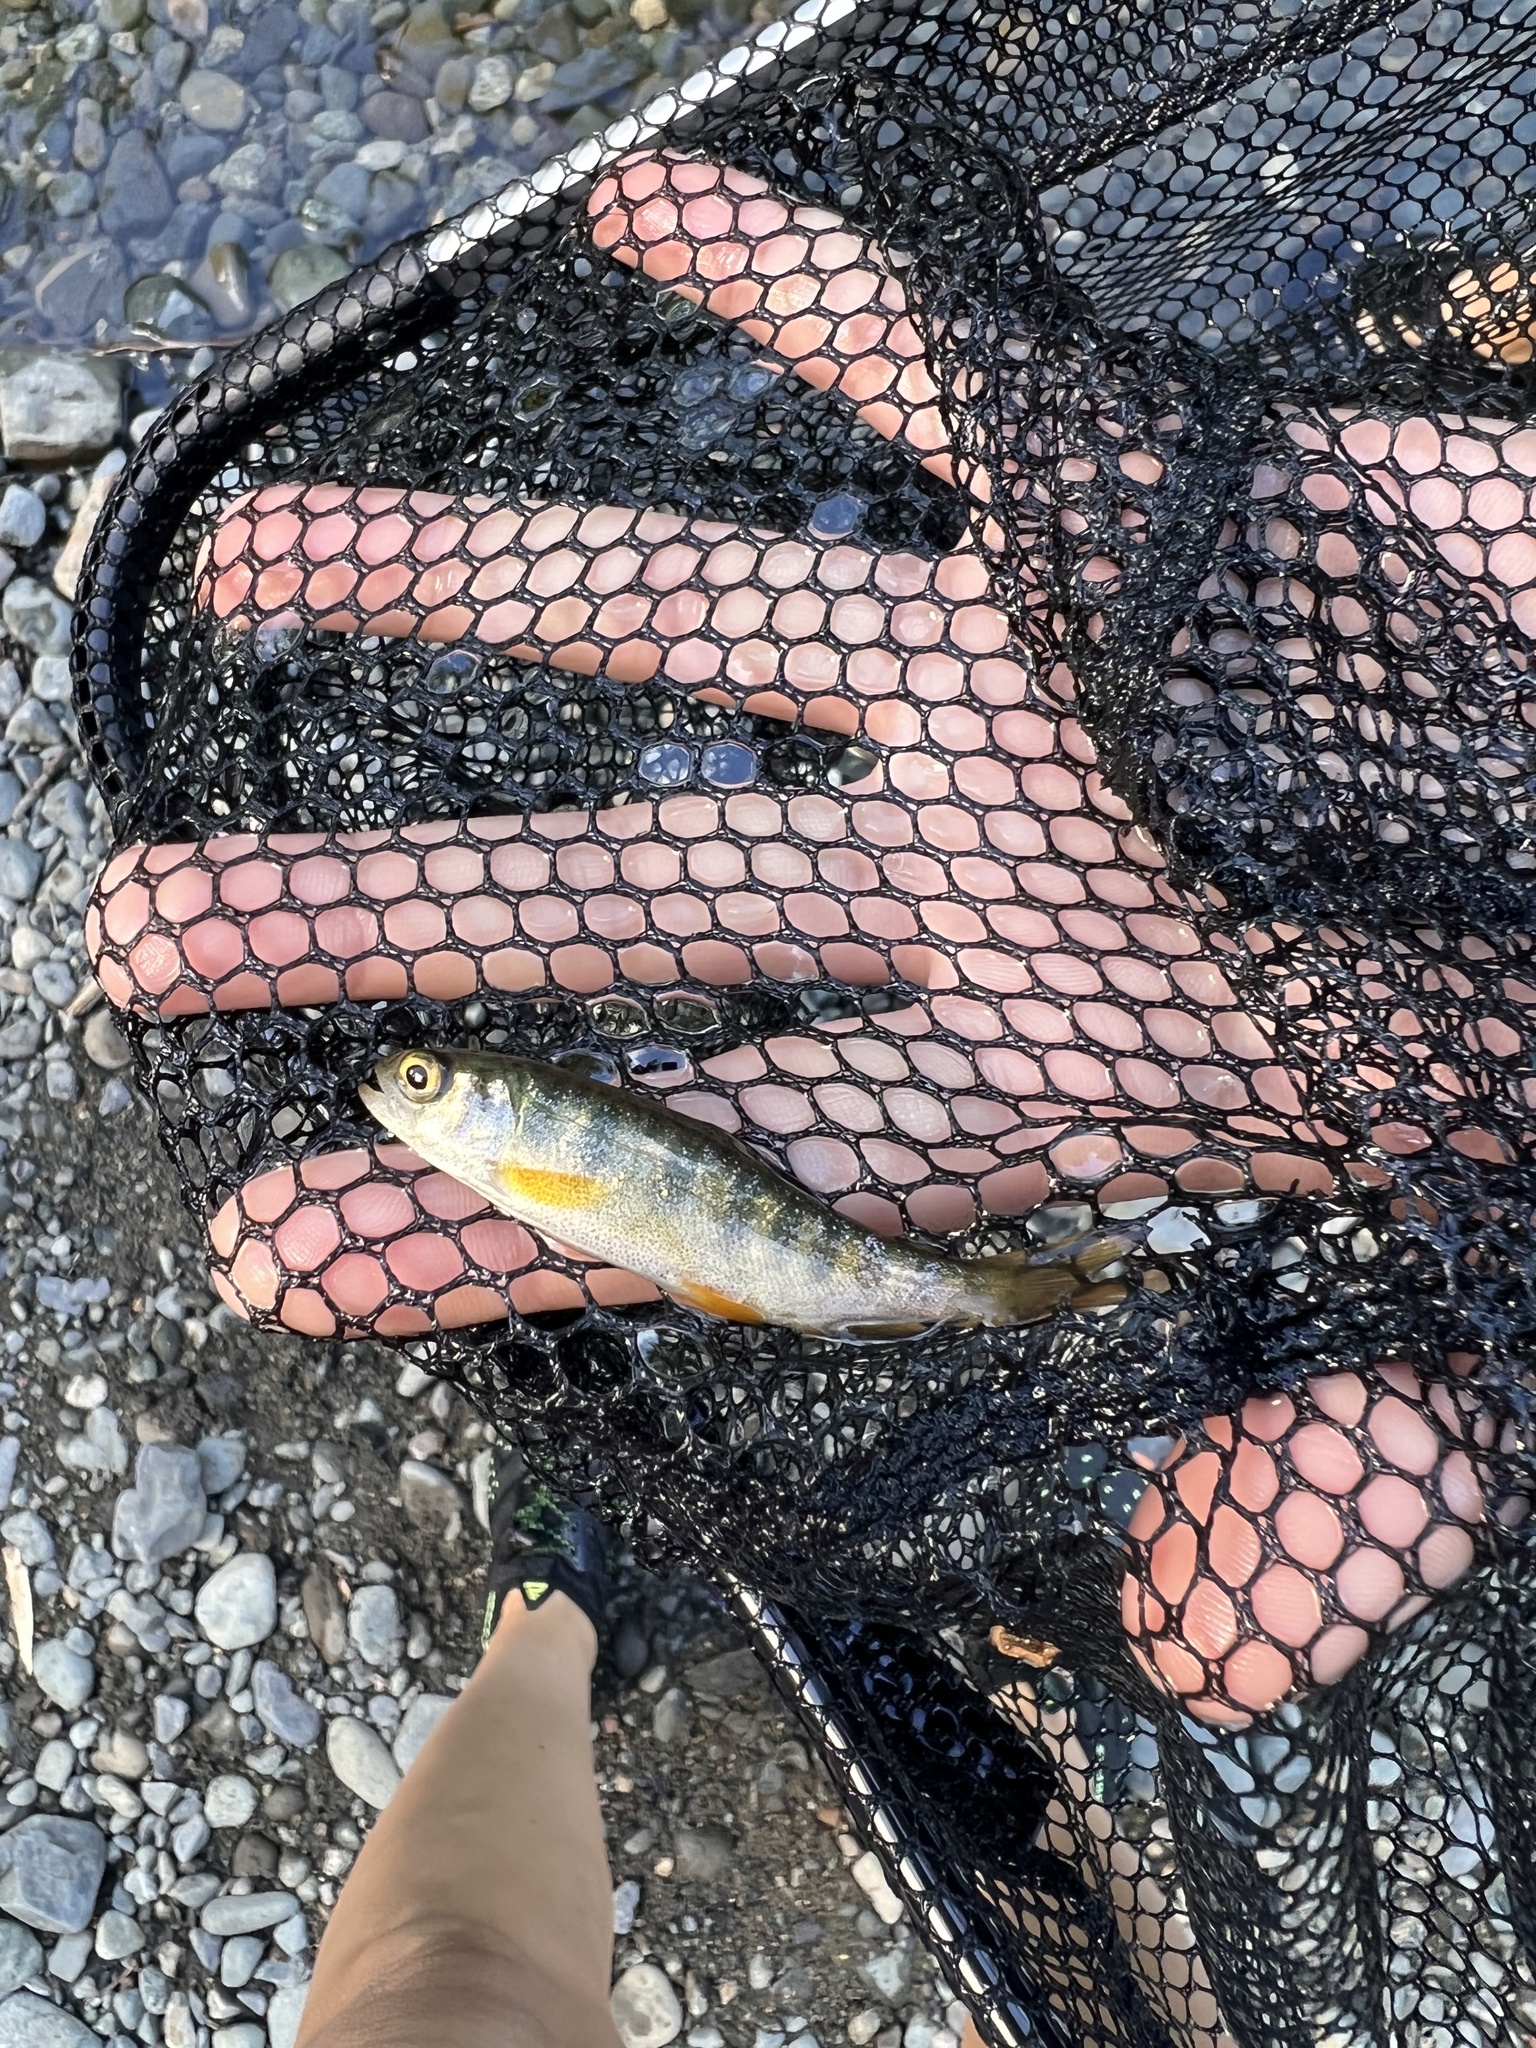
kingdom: Animalia
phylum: Chordata
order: Salmoniformes
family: Salmonidae
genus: Oncorhynchus
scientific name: Oncorhynchus kisutch
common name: Coho salmon
